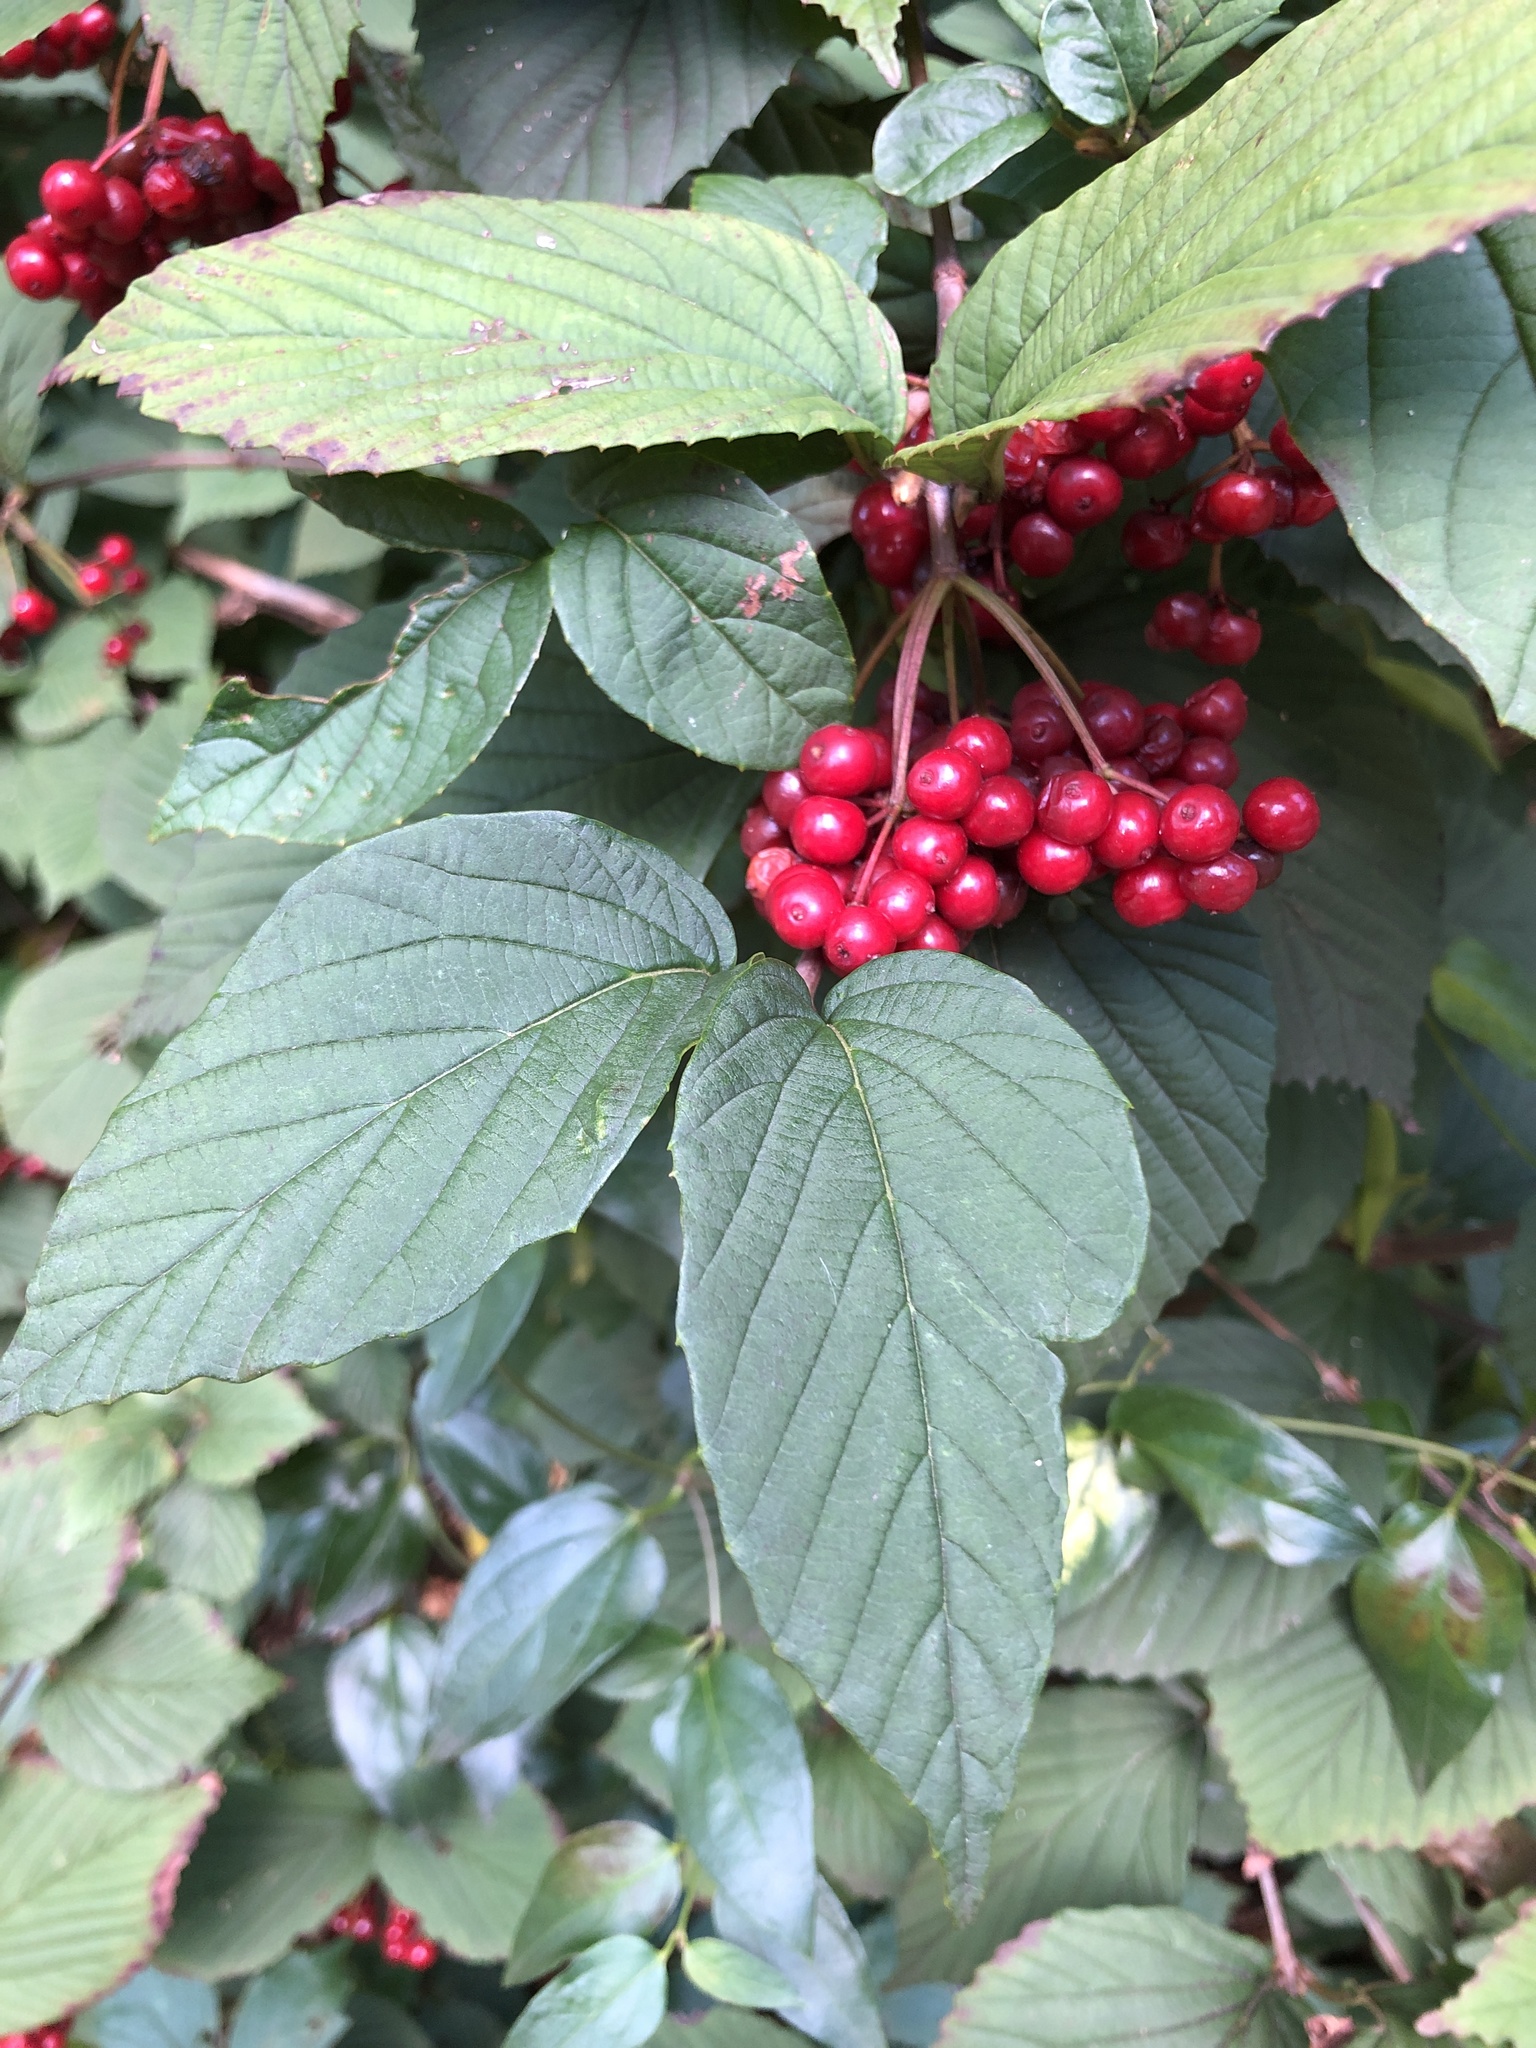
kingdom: Plantae
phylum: Tracheophyta
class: Magnoliopsida
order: Dipsacales
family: Viburnaceae
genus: Viburnum
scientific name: Viburnum wrightii
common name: Wright's viburnum
